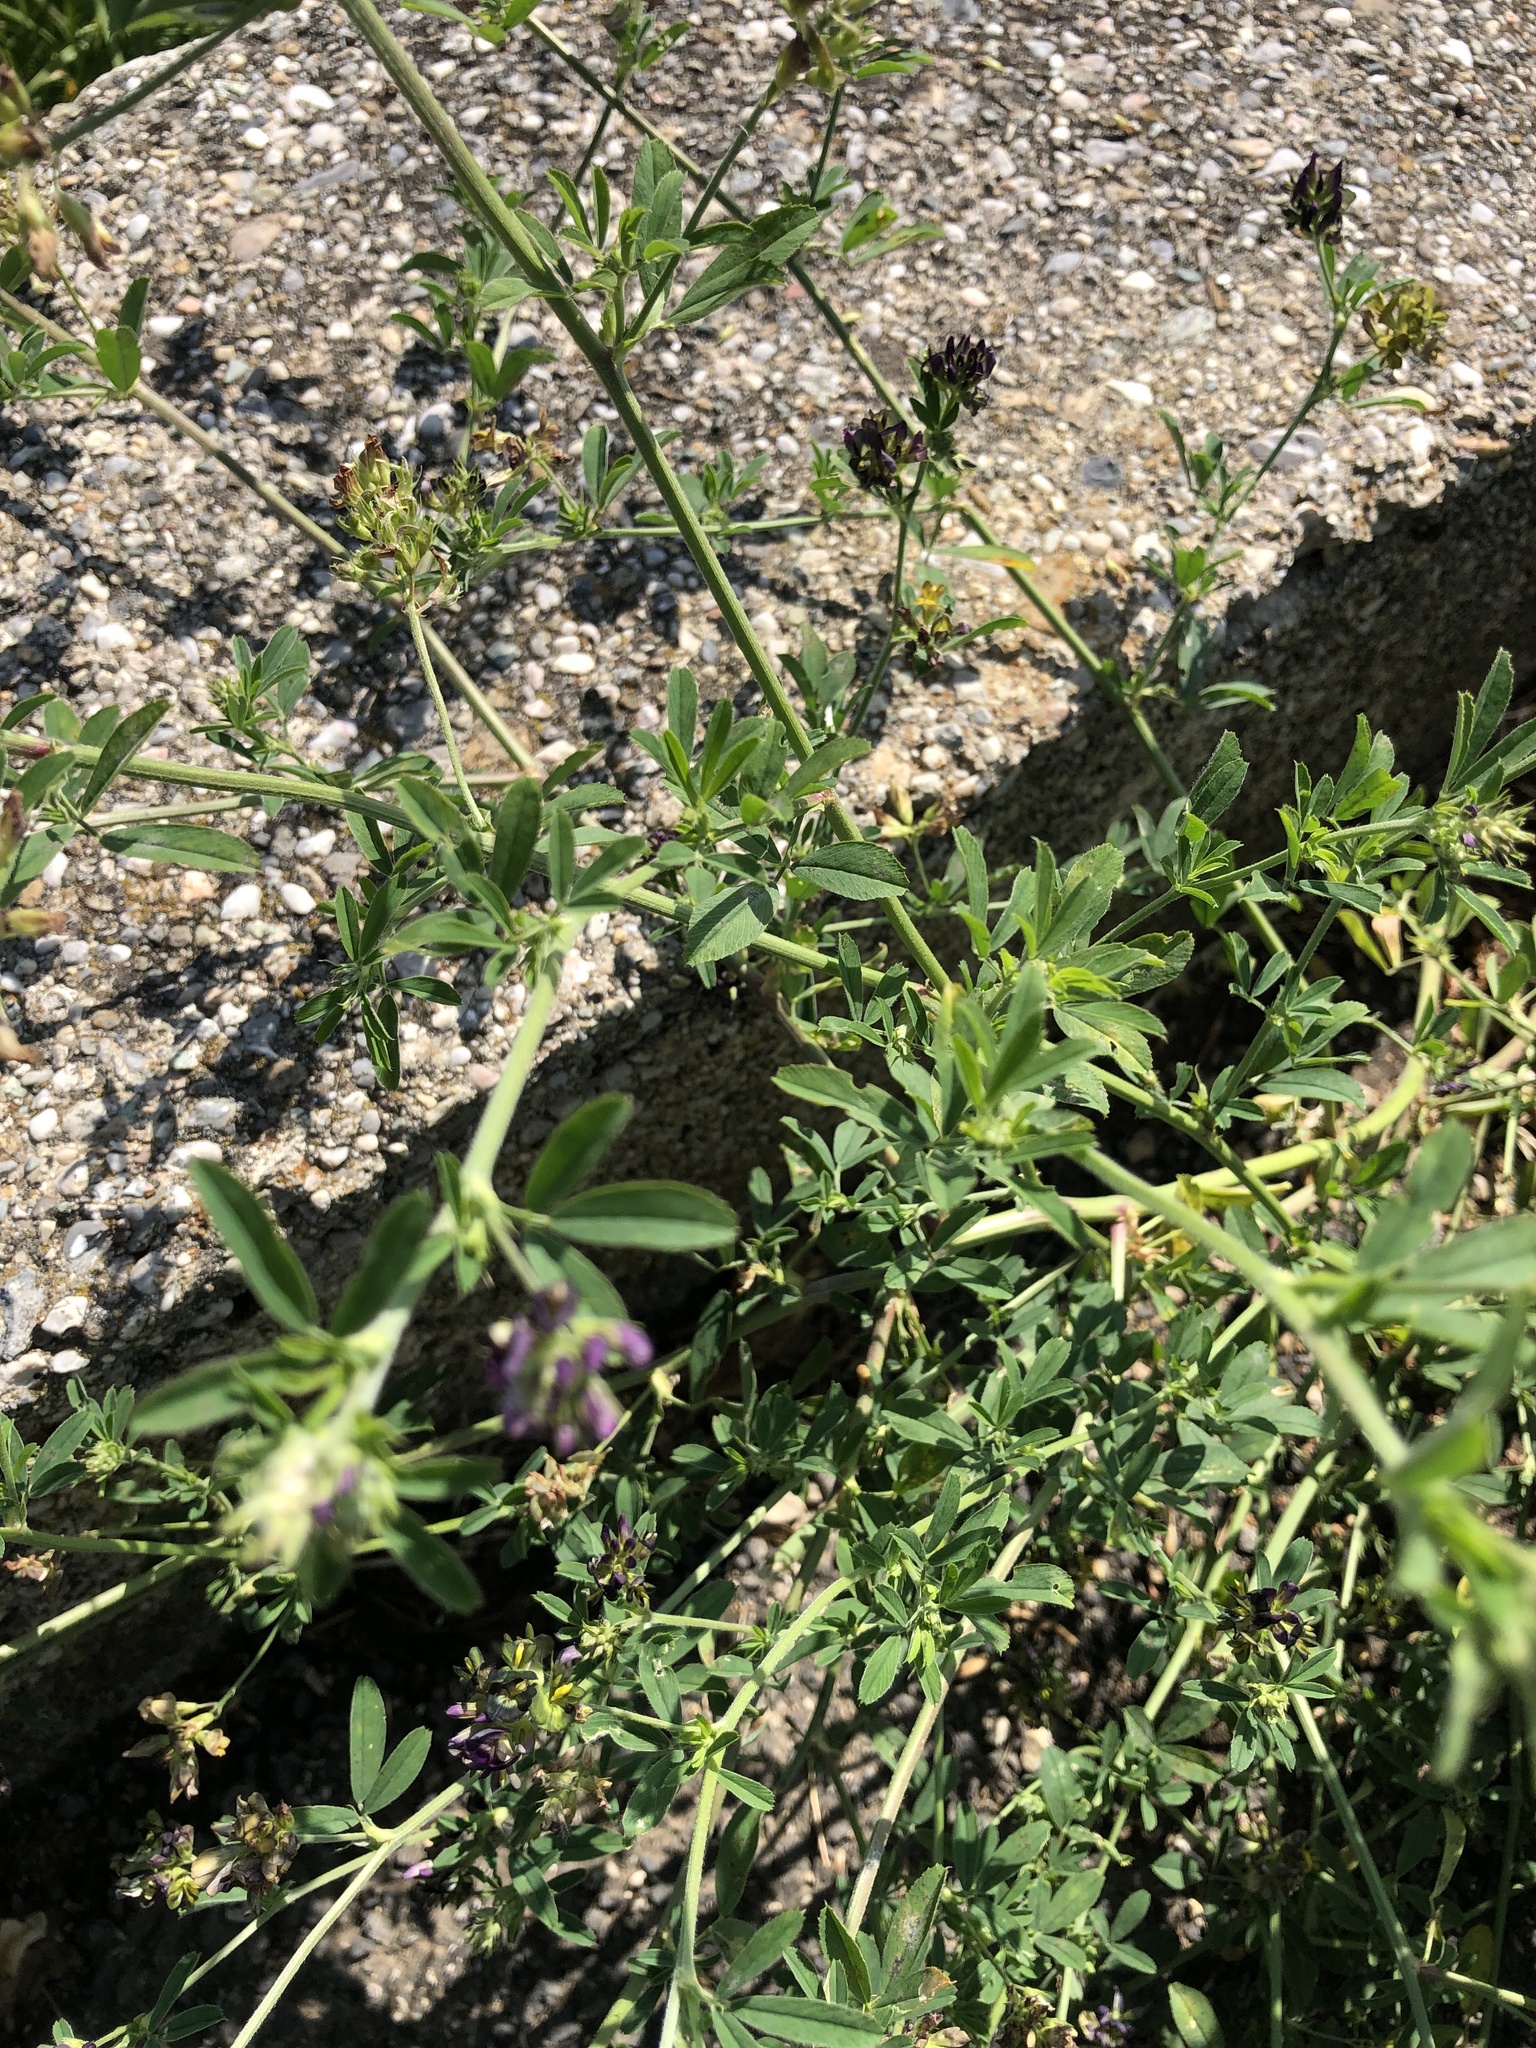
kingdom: Plantae
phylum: Tracheophyta
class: Magnoliopsida
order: Fabales
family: Fabaceae
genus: Medicago
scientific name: Medicago varia
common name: Sand lucerne
